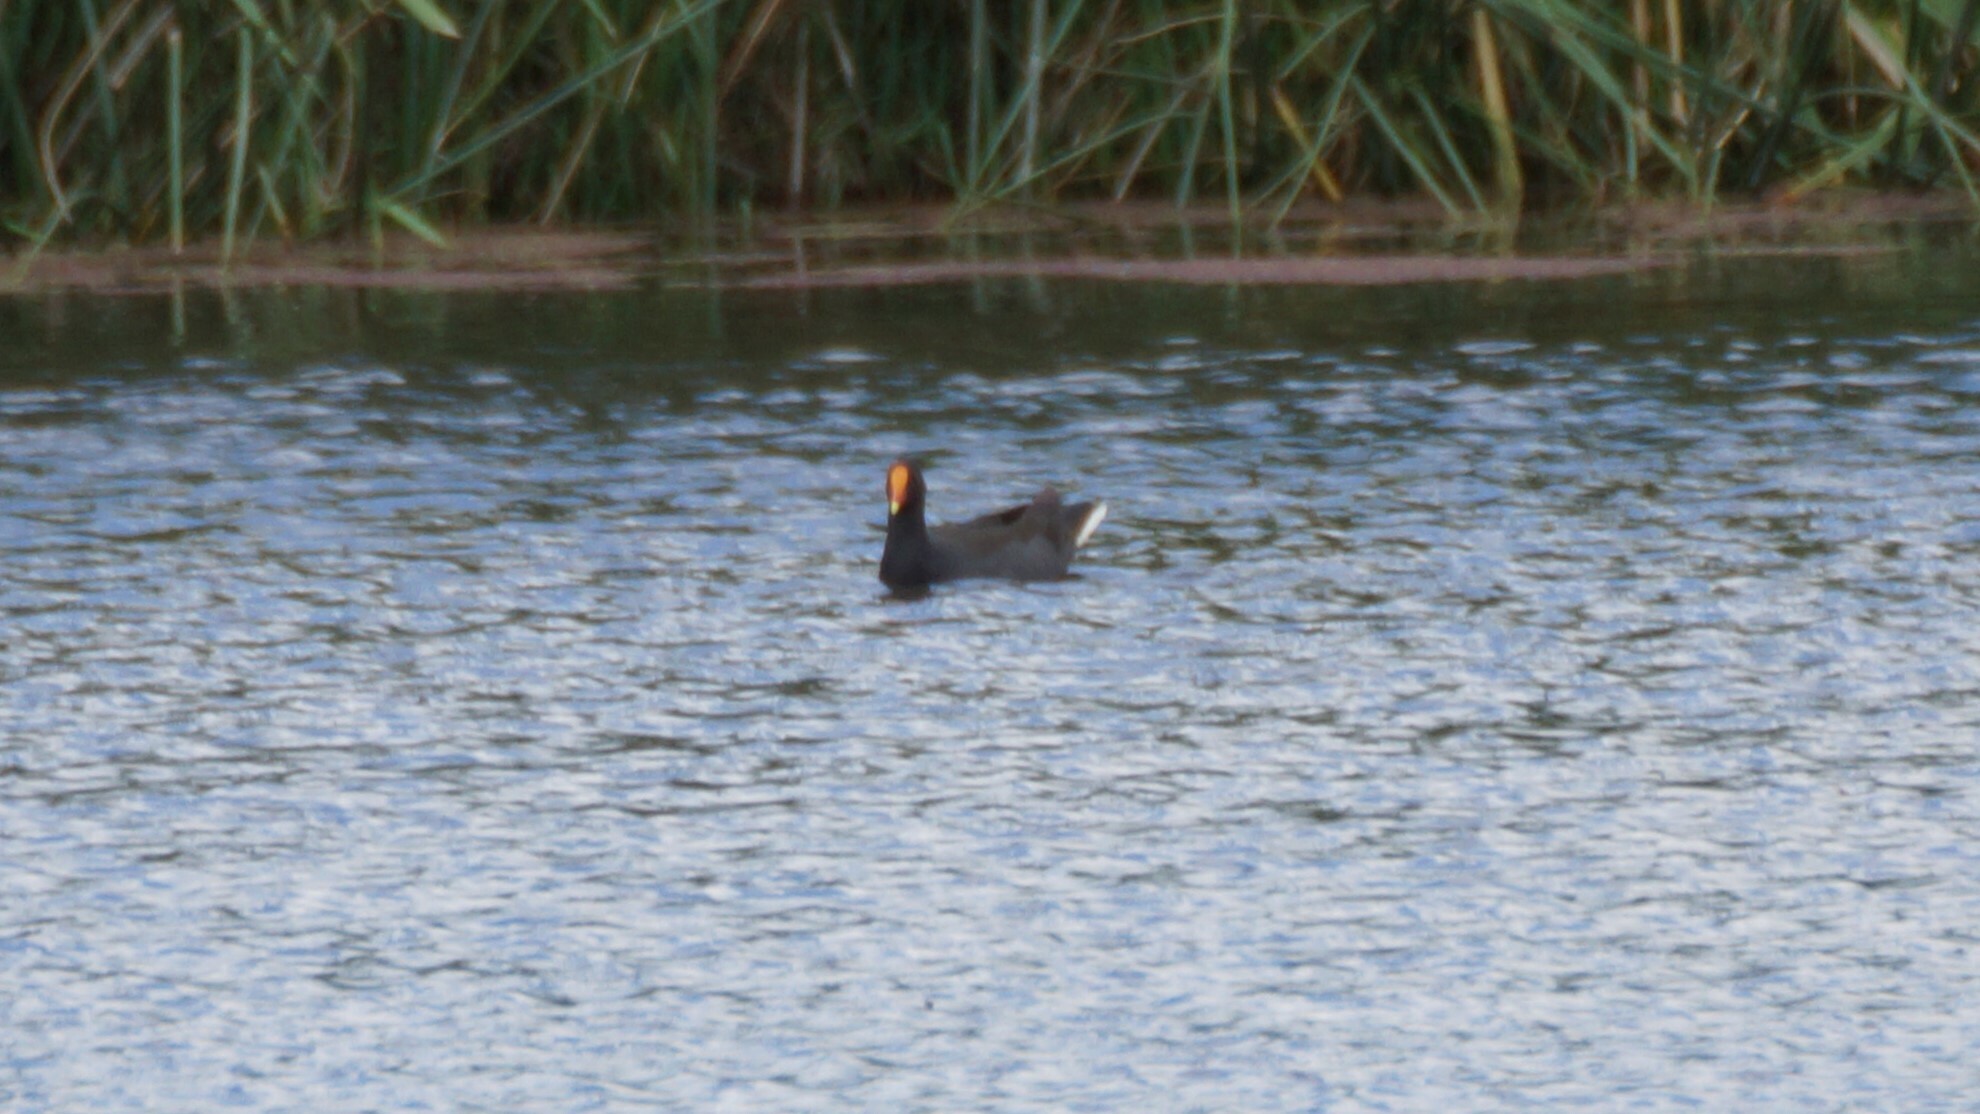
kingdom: Animalia
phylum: Chordata
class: Aves
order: Gruiformes
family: Rallidae
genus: Gallinula
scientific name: Gallinula tenebrosa
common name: Dusky moorhen
